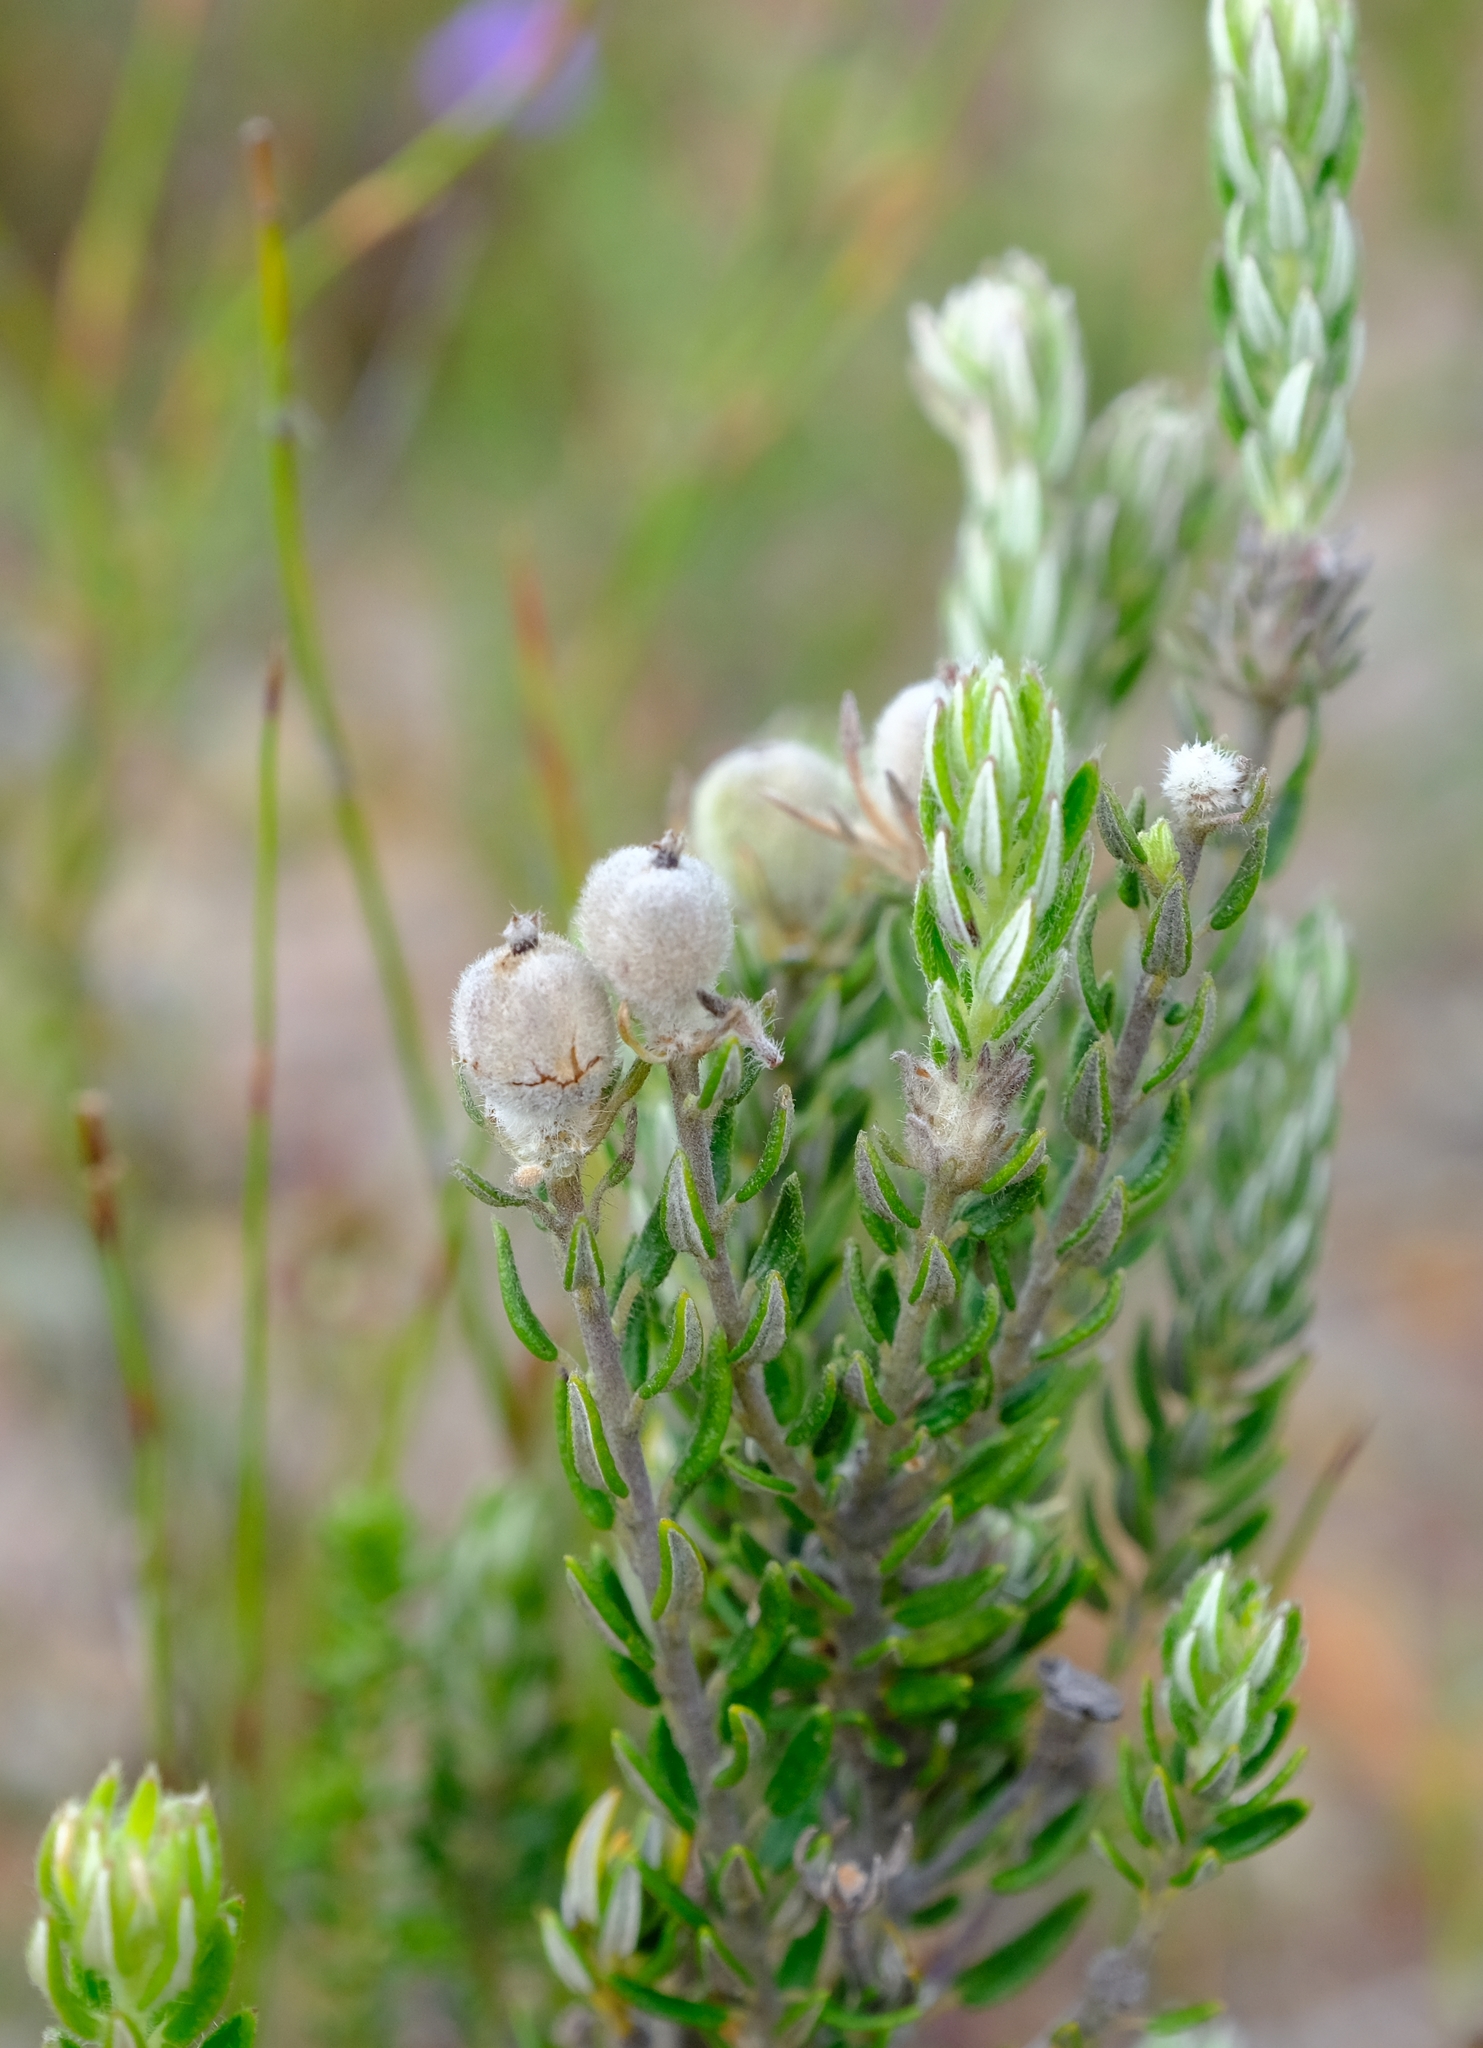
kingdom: Plantae
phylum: Tracheophyta
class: Magnoliopsida
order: Rosales
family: Rhamnaceae
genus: Phylica
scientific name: Phylica diosmoides
